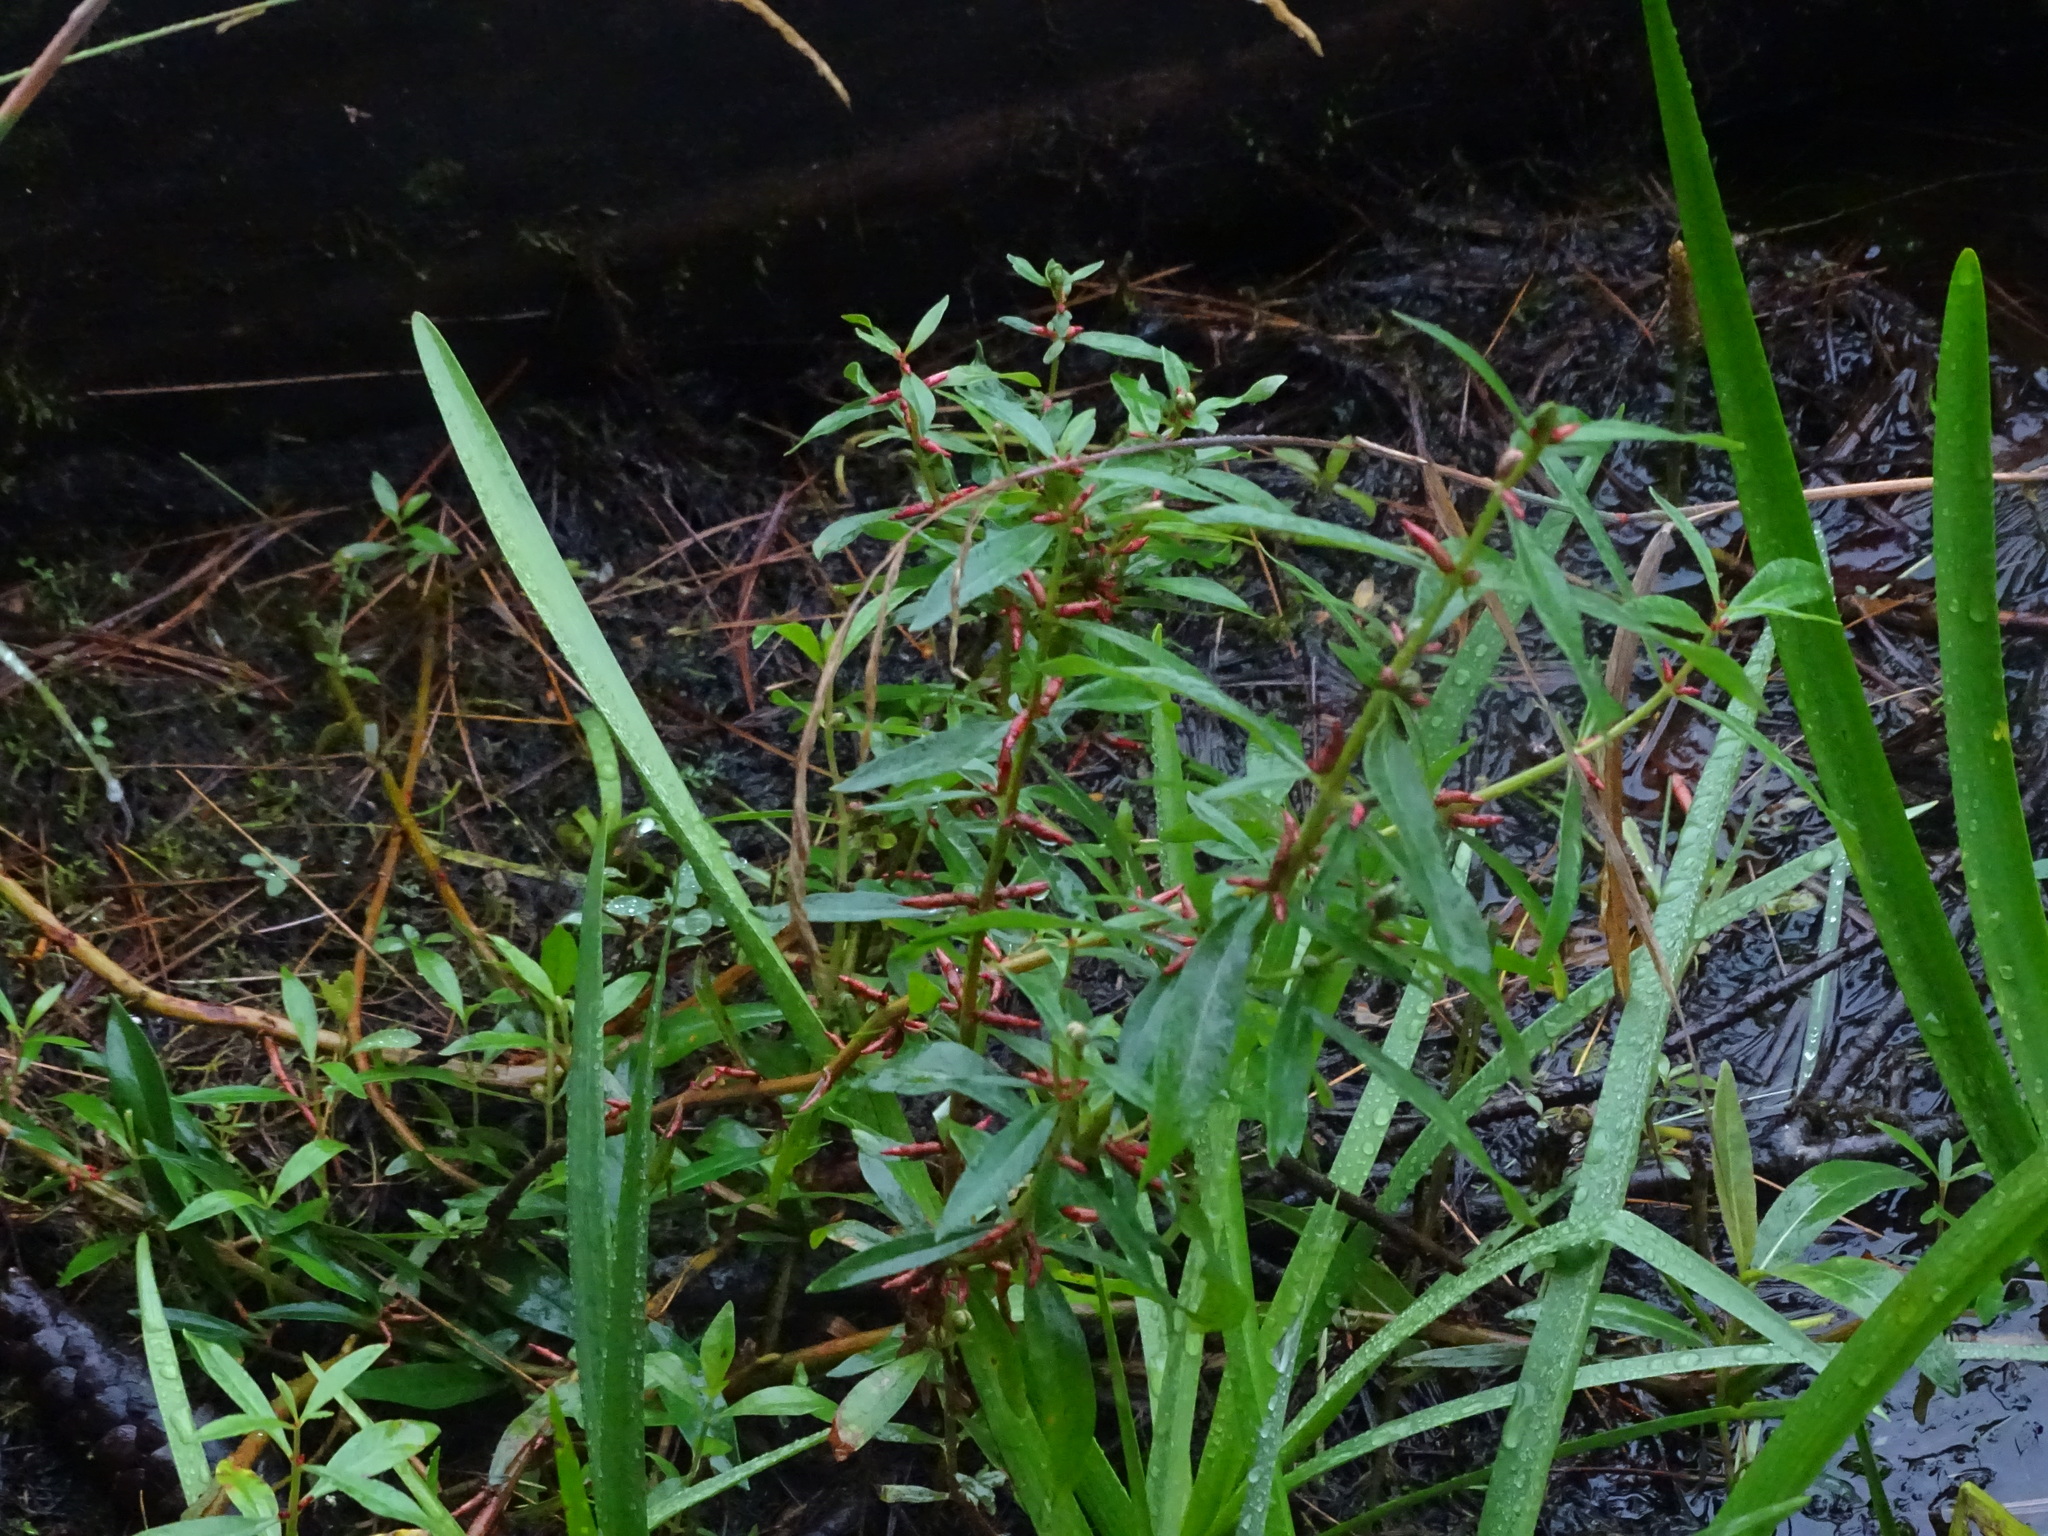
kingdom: Plantae
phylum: Tracheophyta
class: Magnoliopsida
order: Ericales
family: Primulaceae
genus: Lysimachia
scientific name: Lysimachia terrestris
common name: Lake loosestrife
